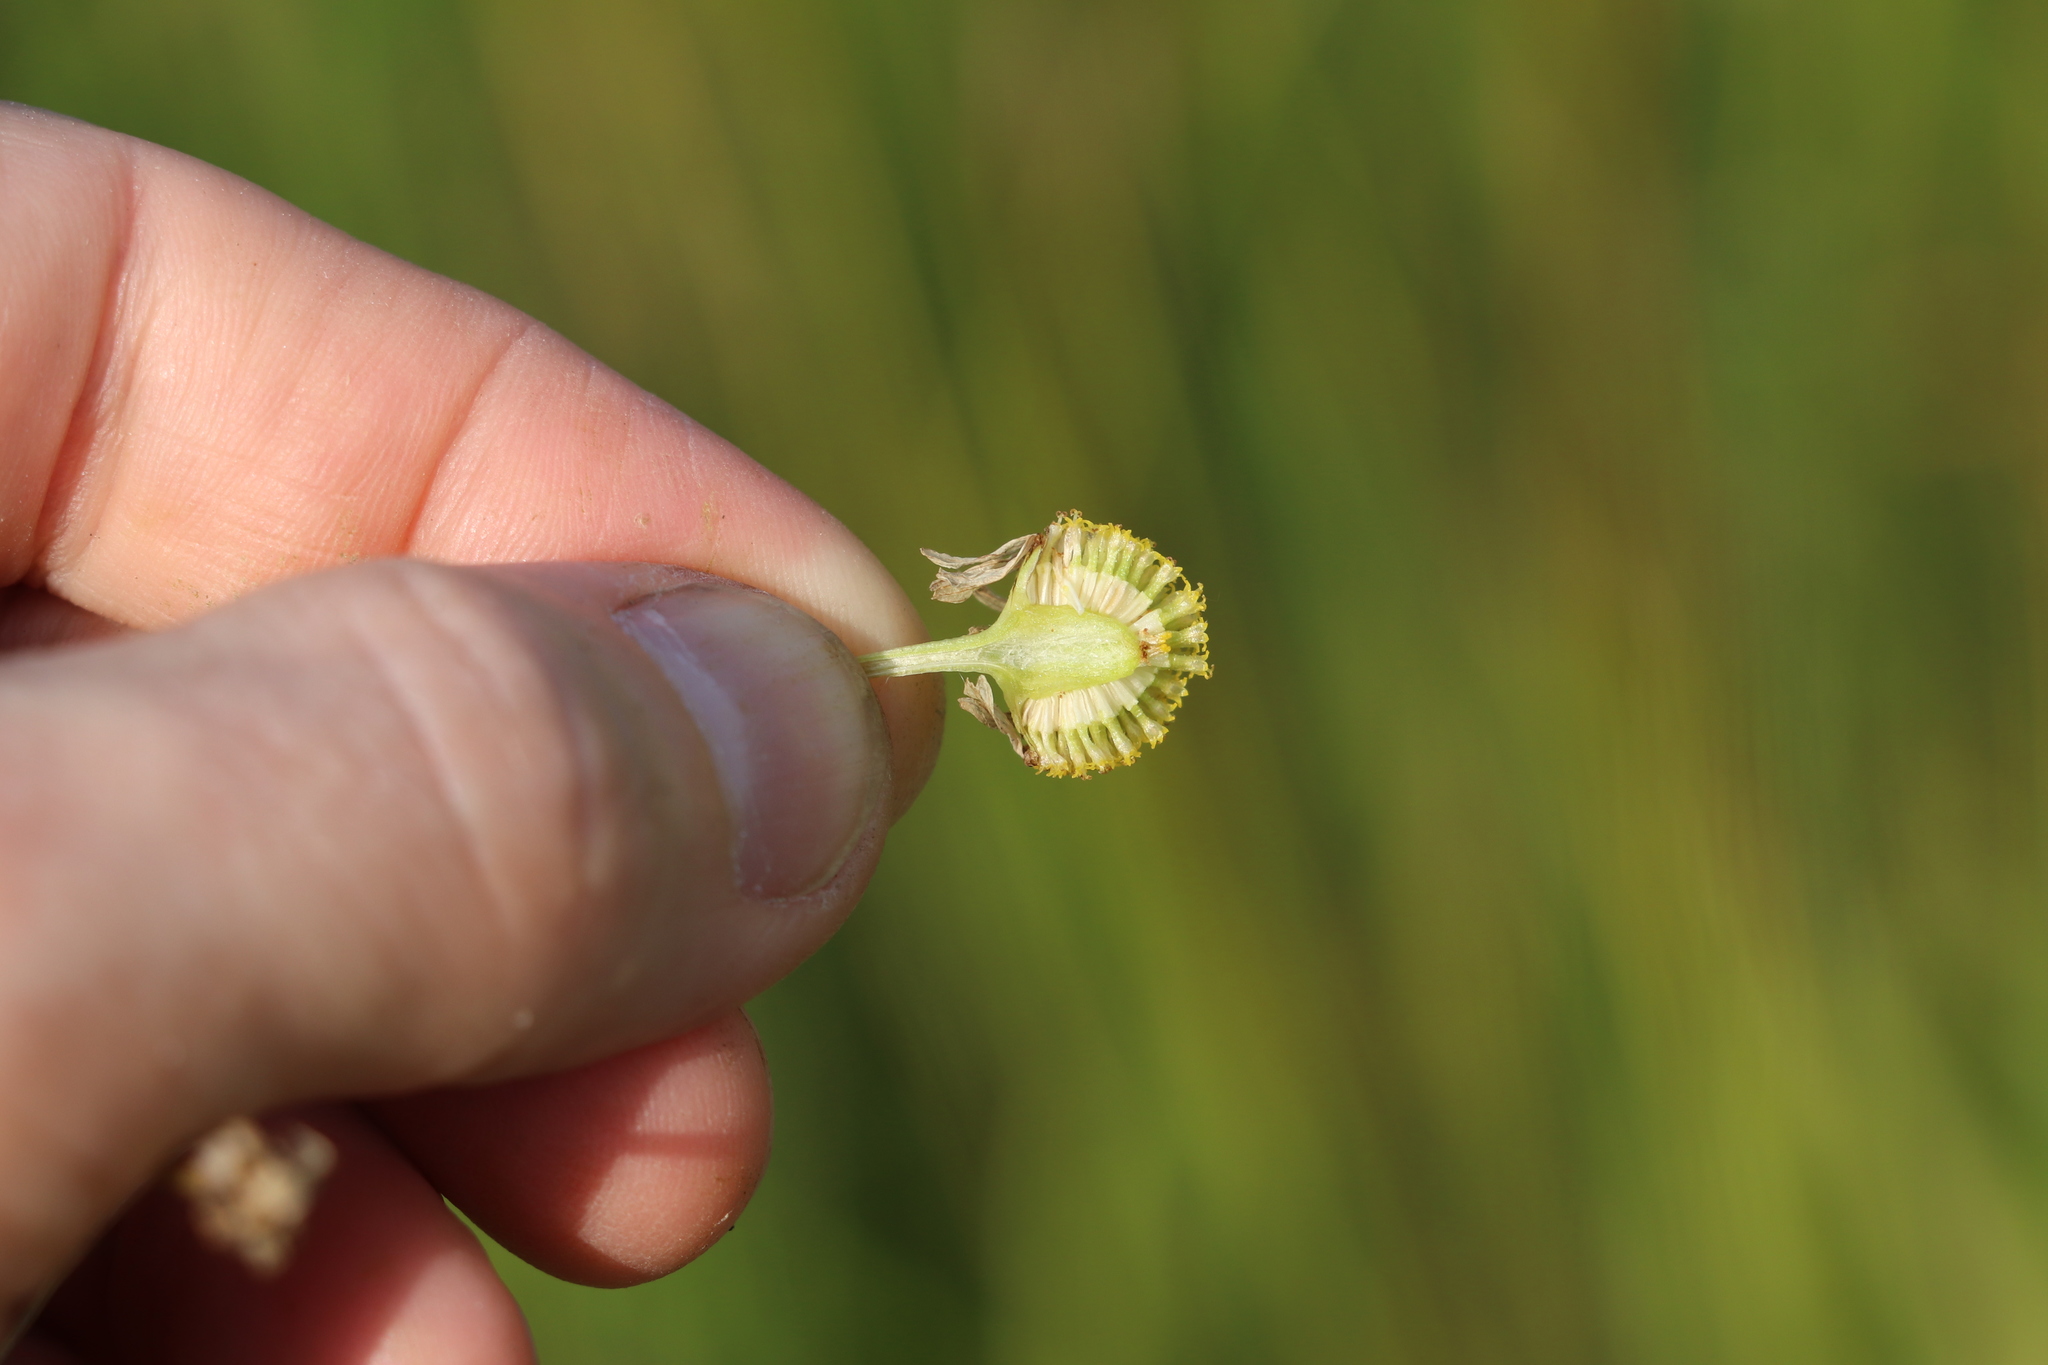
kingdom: Plantae
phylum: Tracheophyta
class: Magnoliopsida
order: Asterales
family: Asteraceae
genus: Tripleurospermum
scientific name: Tripleurospermum inodorum
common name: Scentless mayweed
